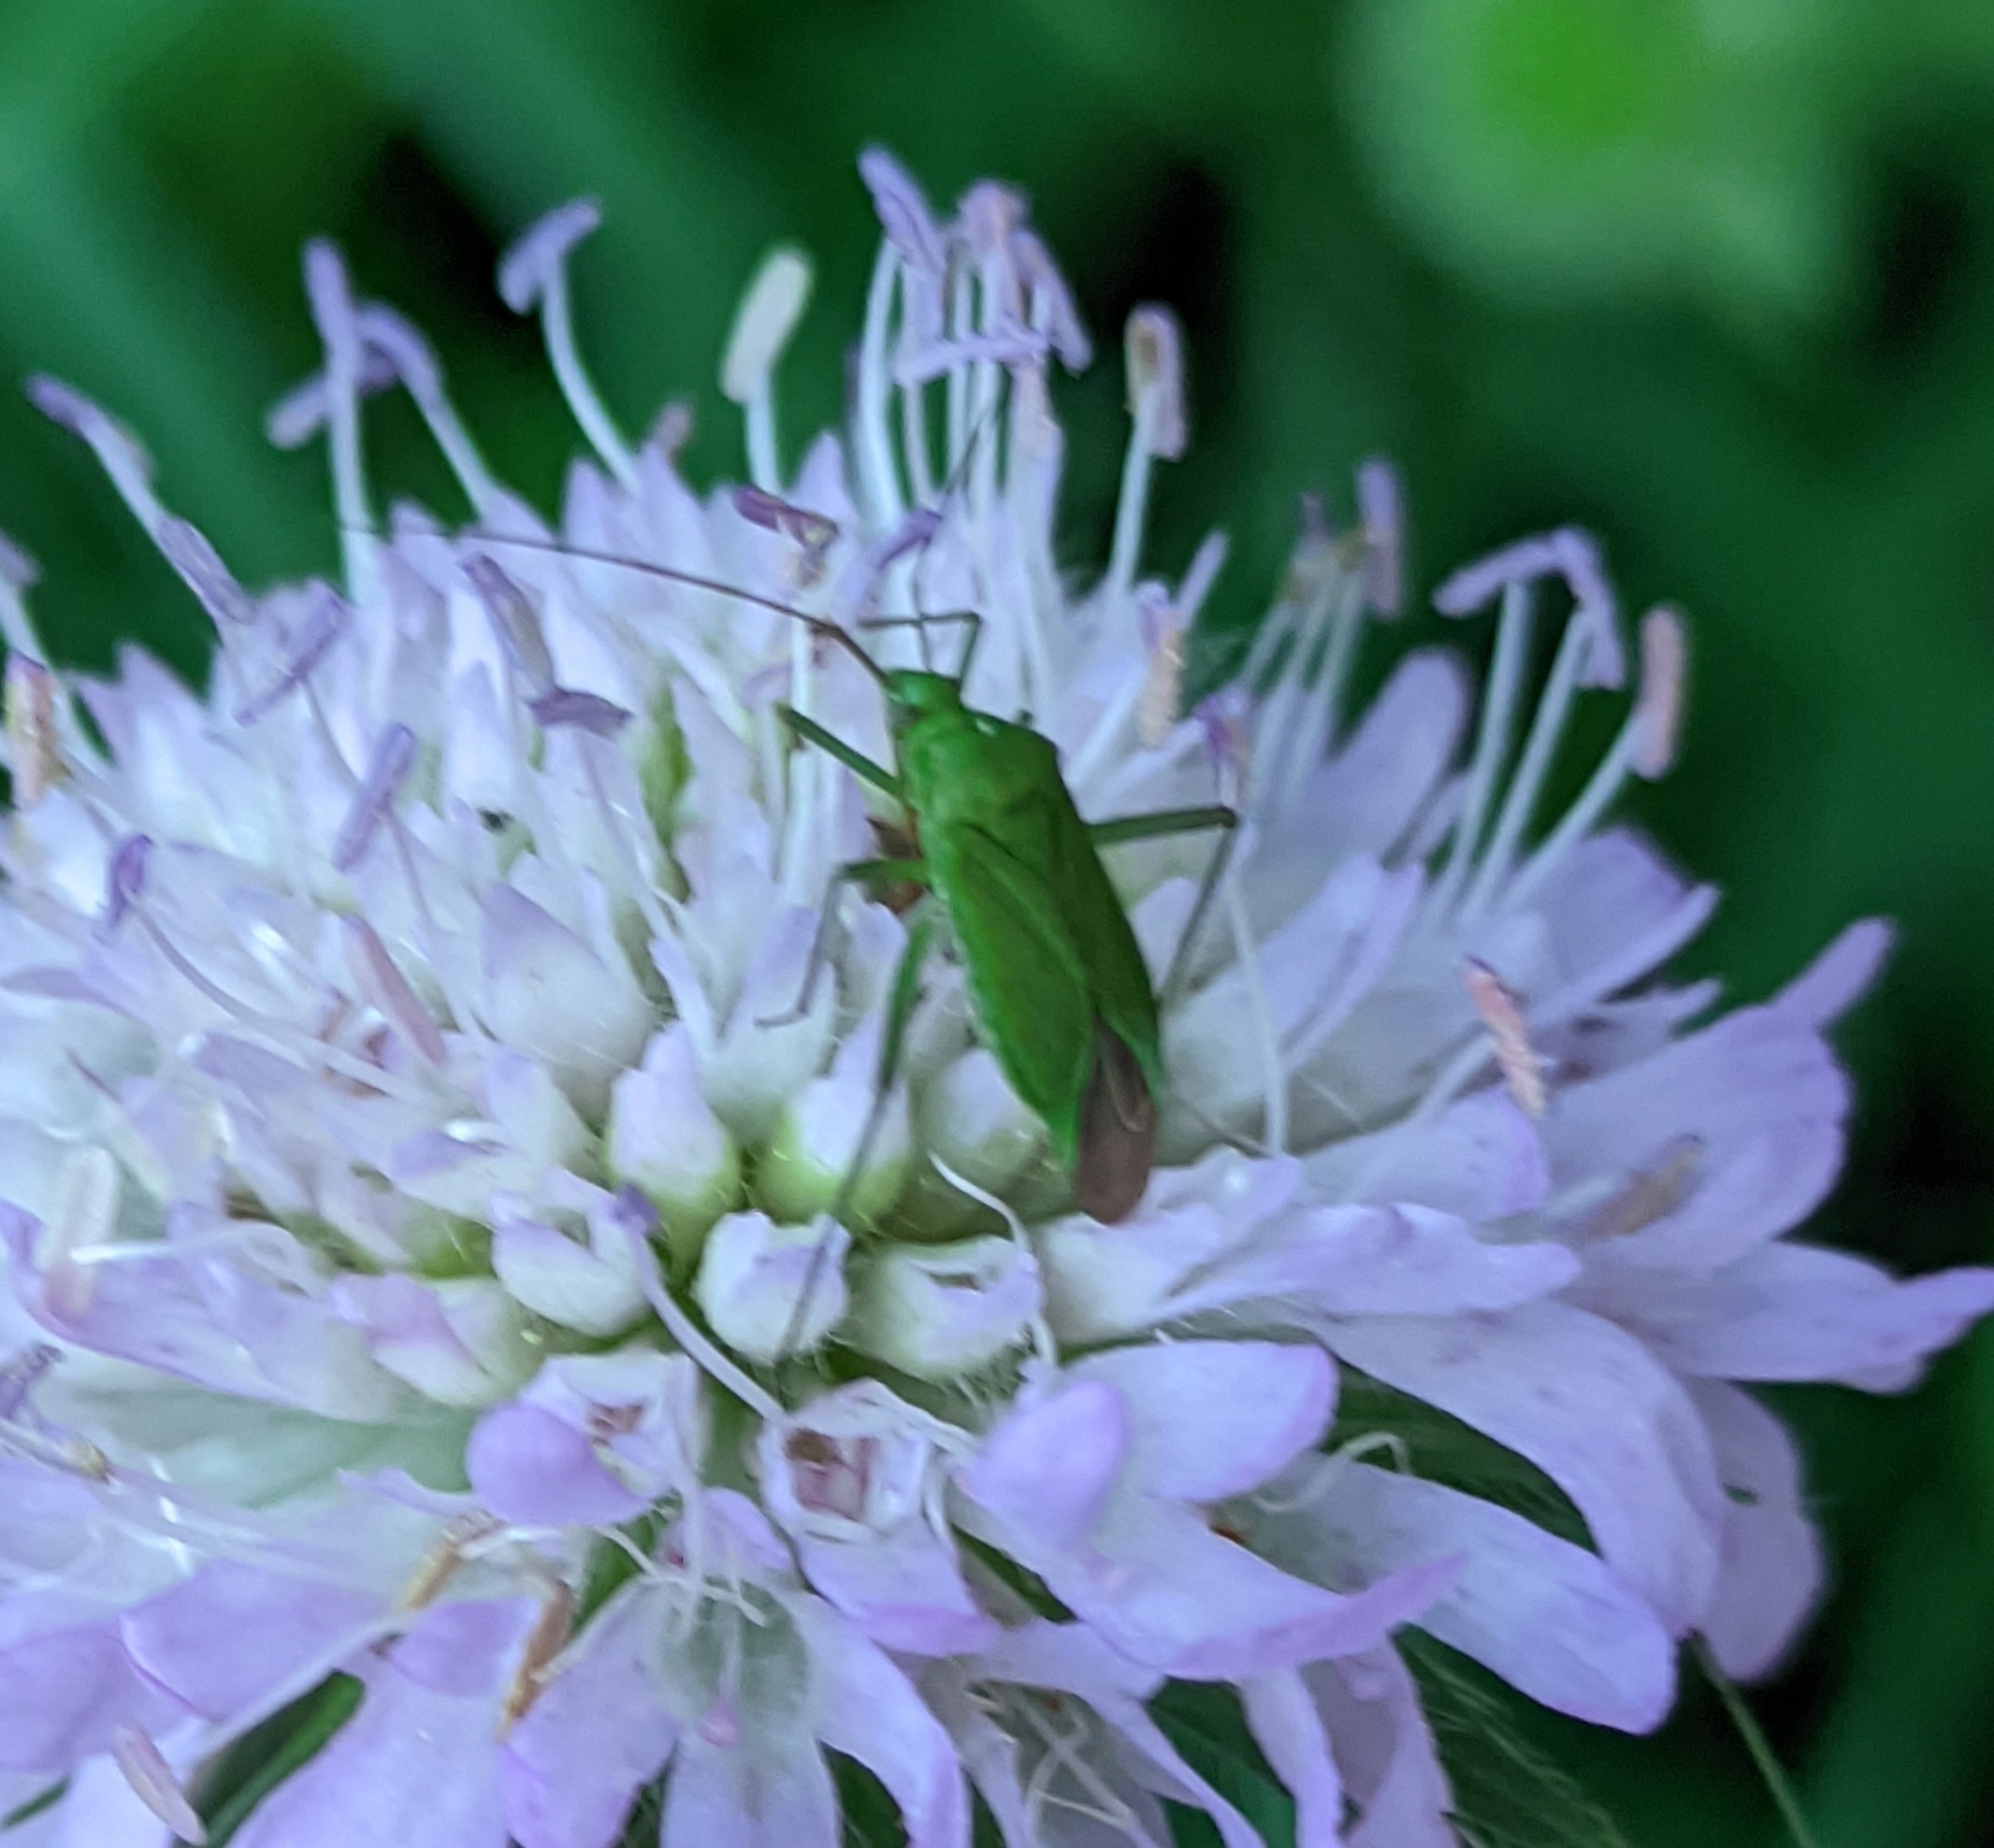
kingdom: Animalia
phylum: Arthropoda
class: Insecta
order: Hemiptera
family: Miridae
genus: Calocoris
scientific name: Calocoris affinis
